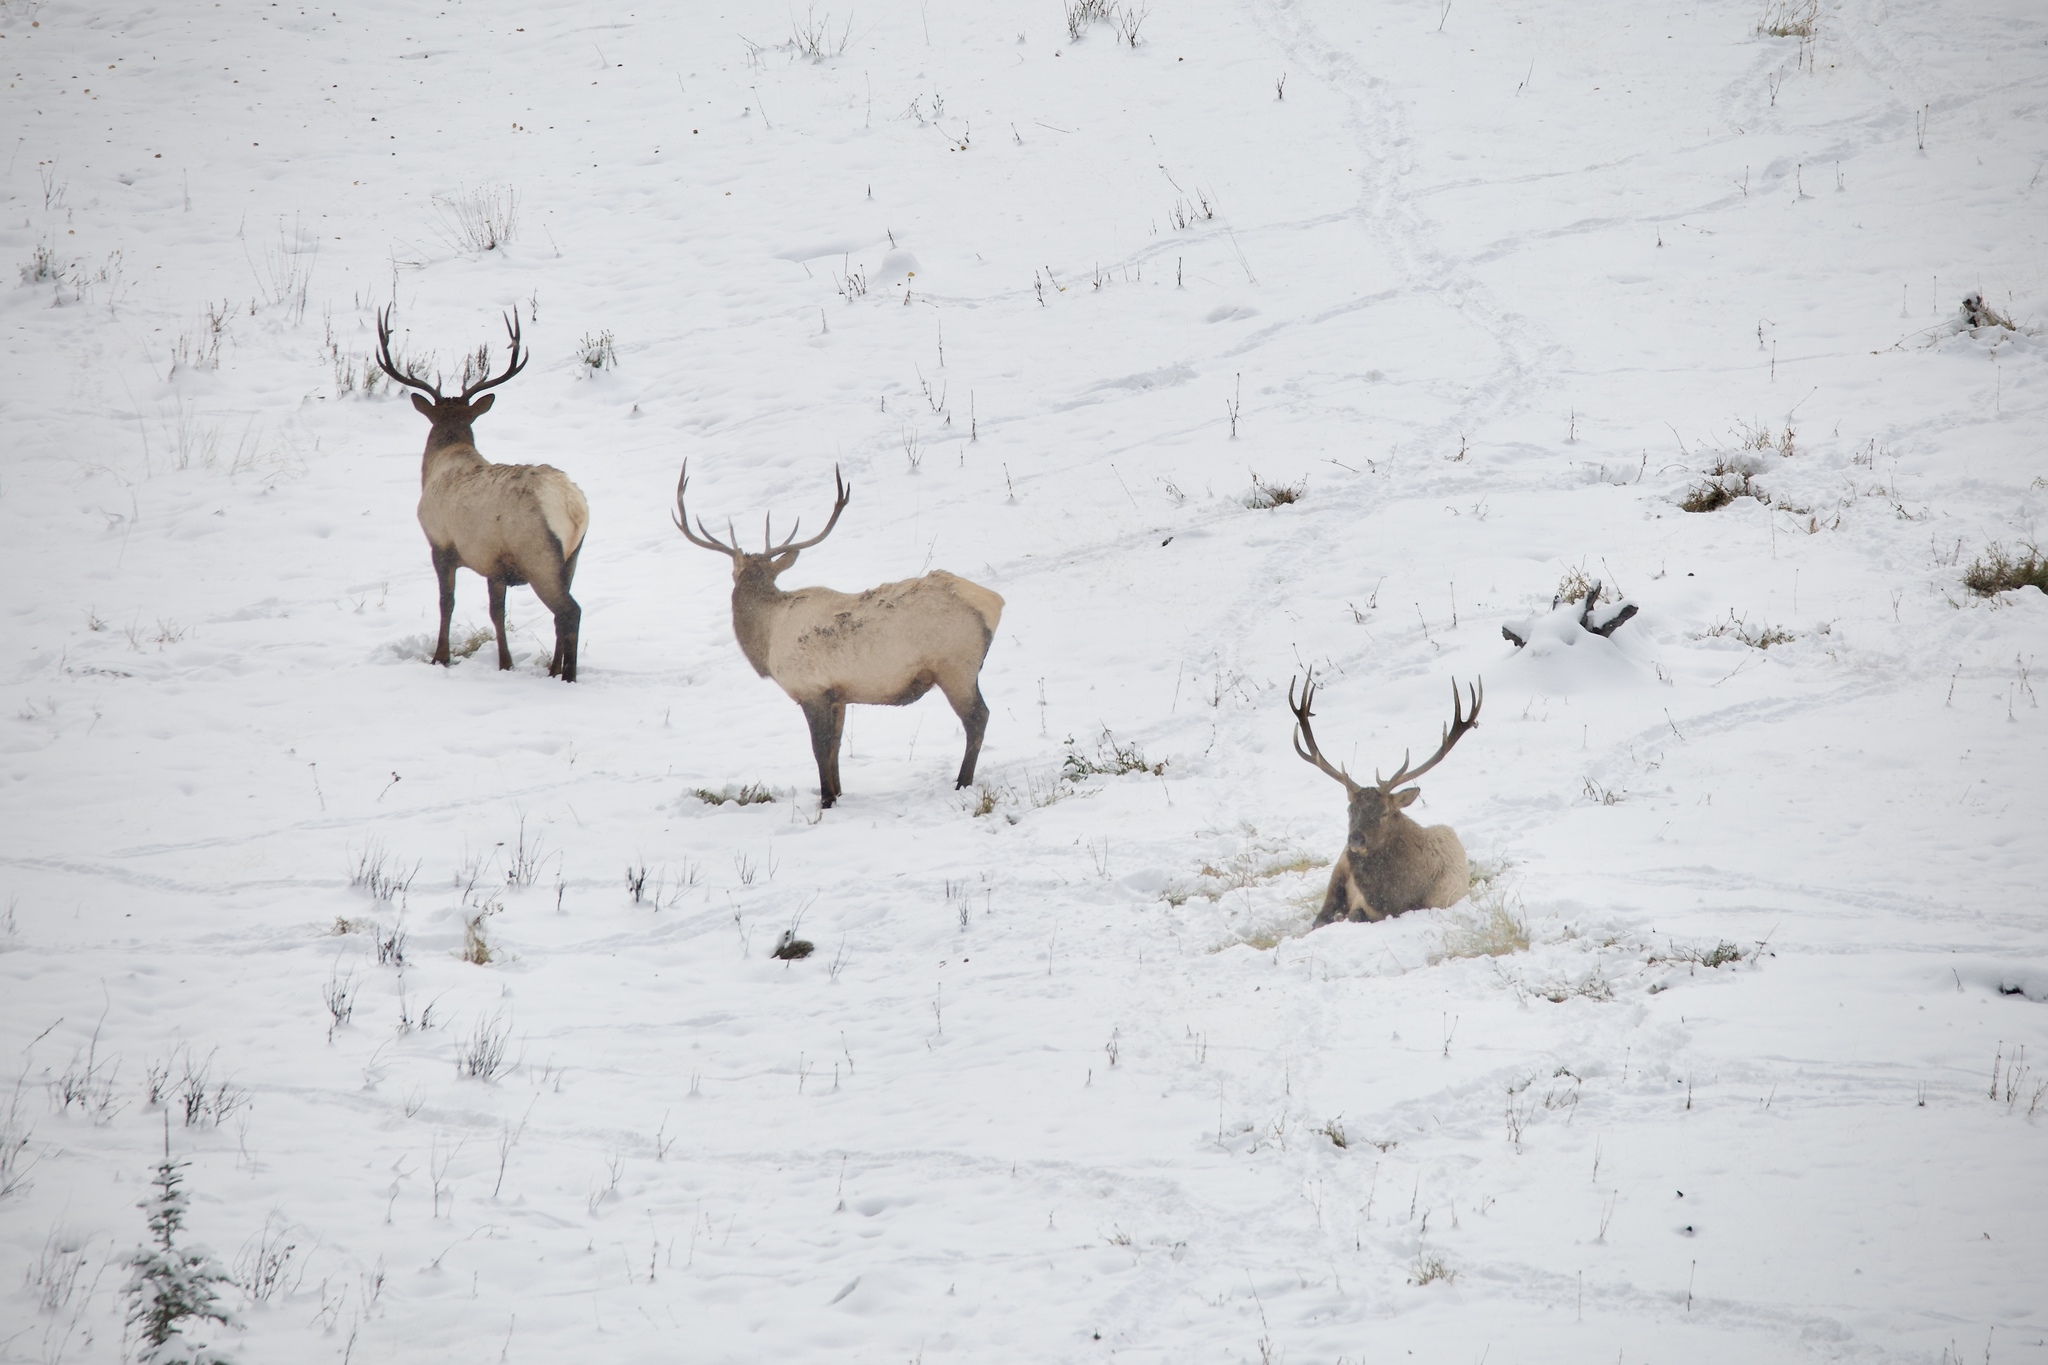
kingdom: Animalia
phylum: Chordata
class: Mammalia
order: Artiodactyla
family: Cervidae
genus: Cervus
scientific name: Cervus elaphus
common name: Red deer
